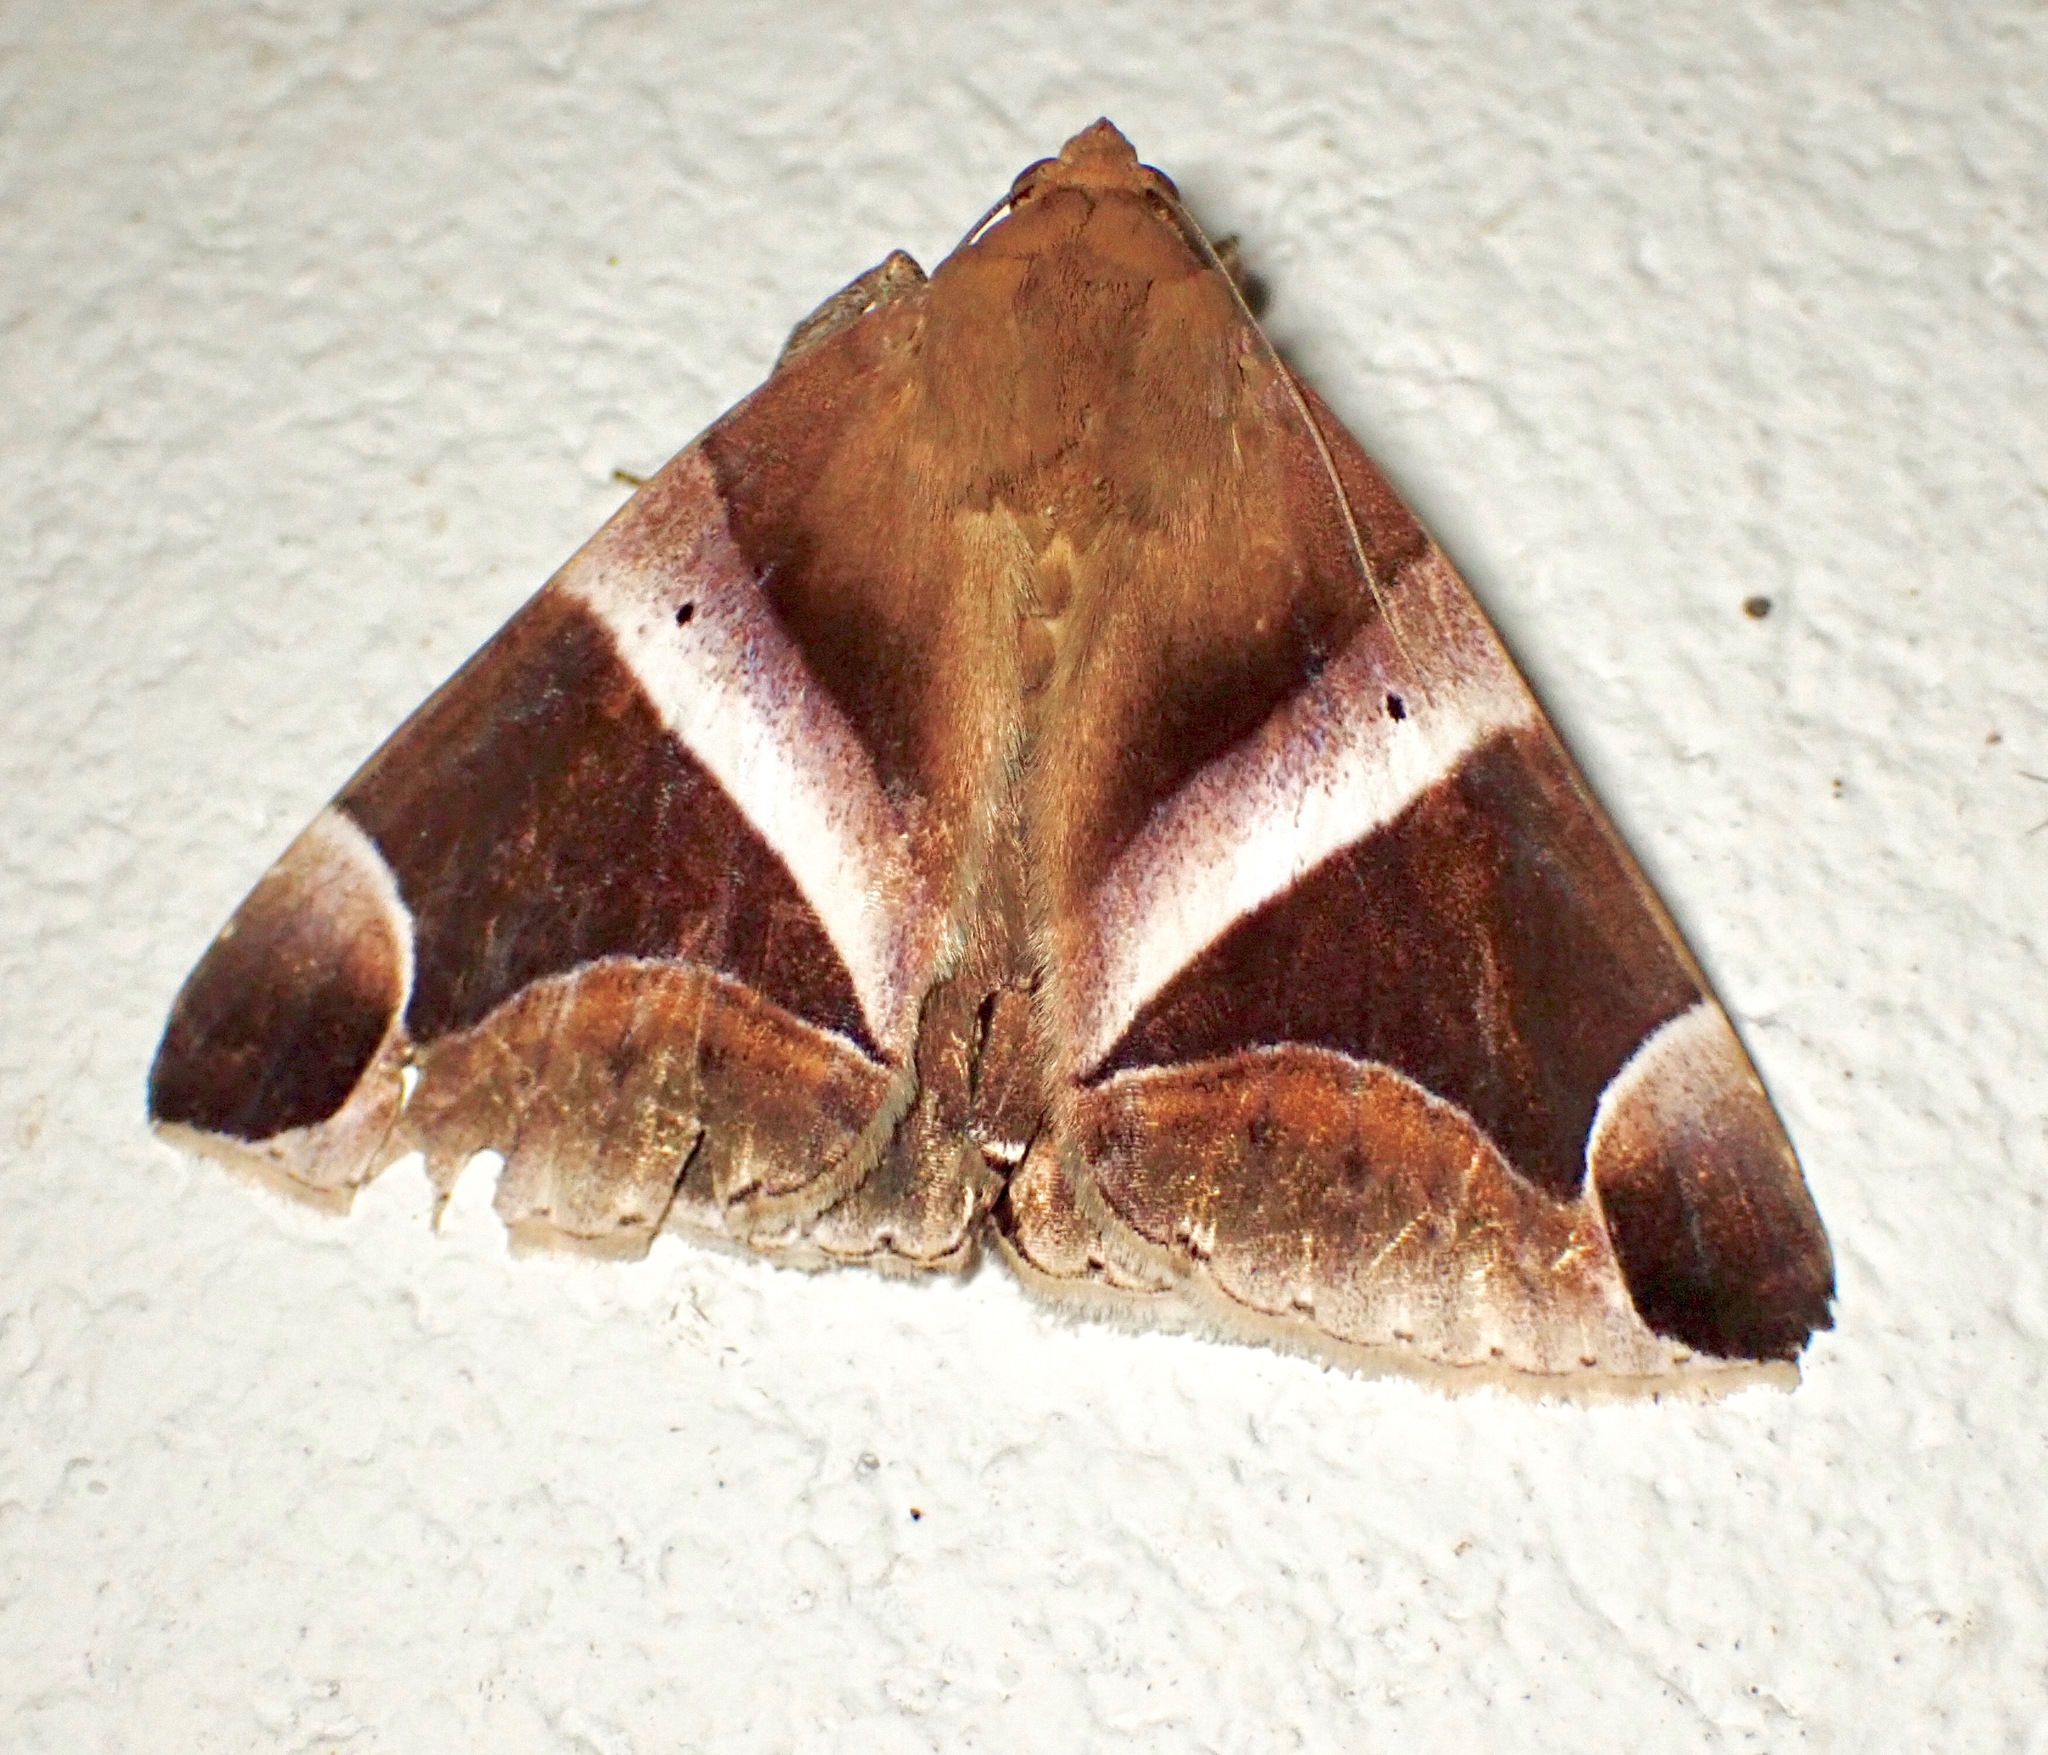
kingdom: Animalia
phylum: Arthropoda
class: Insecta
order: Lepidoptera
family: Erebidae
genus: Dysgonia
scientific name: Dysgonia purpurata
